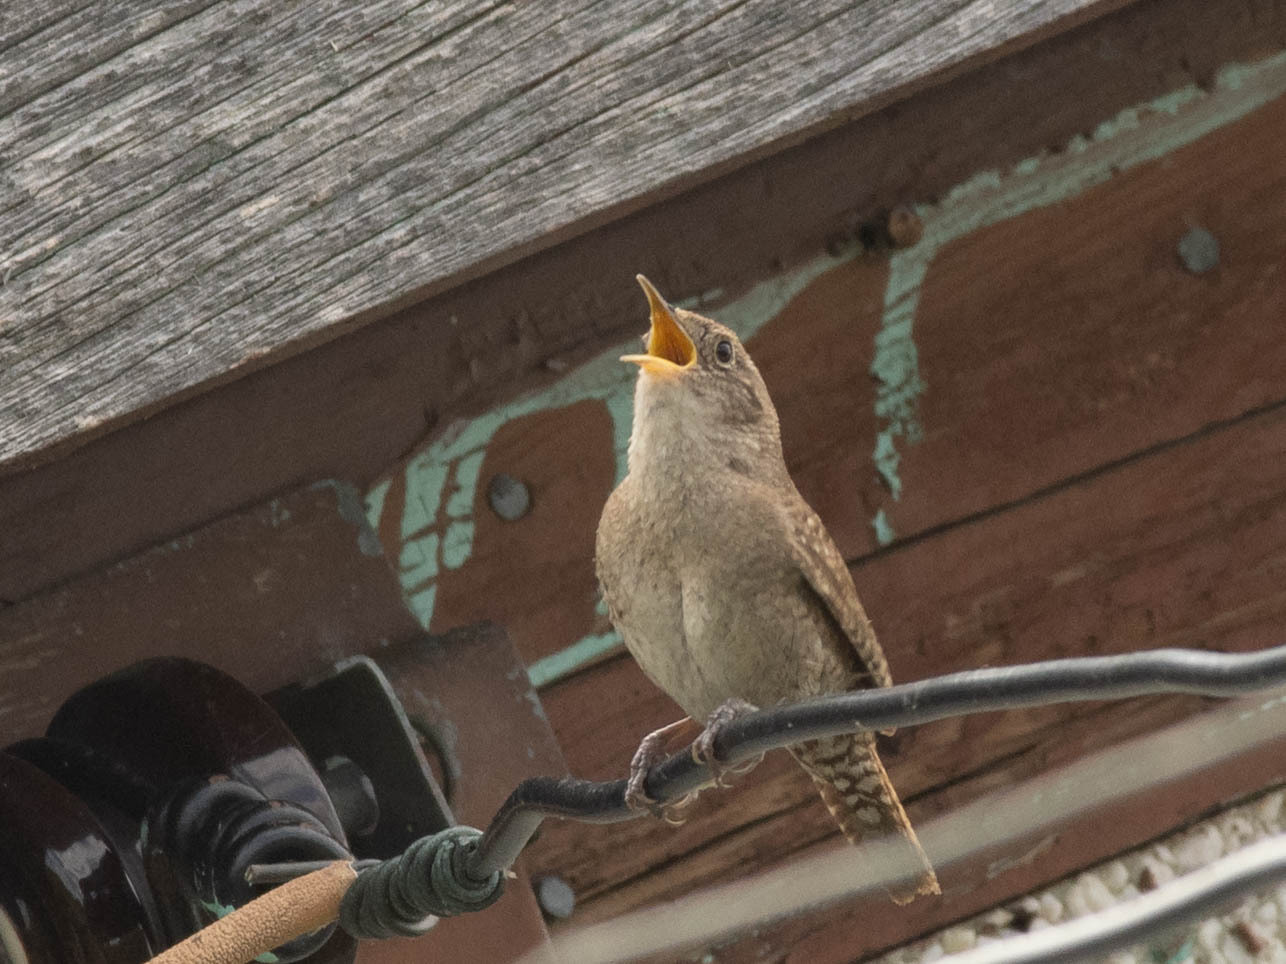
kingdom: Animalia
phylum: Chordata
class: Aves
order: Passeriformes
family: Troglodytidae
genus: Troglodytes
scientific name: Troglodytes aedon
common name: House wren
